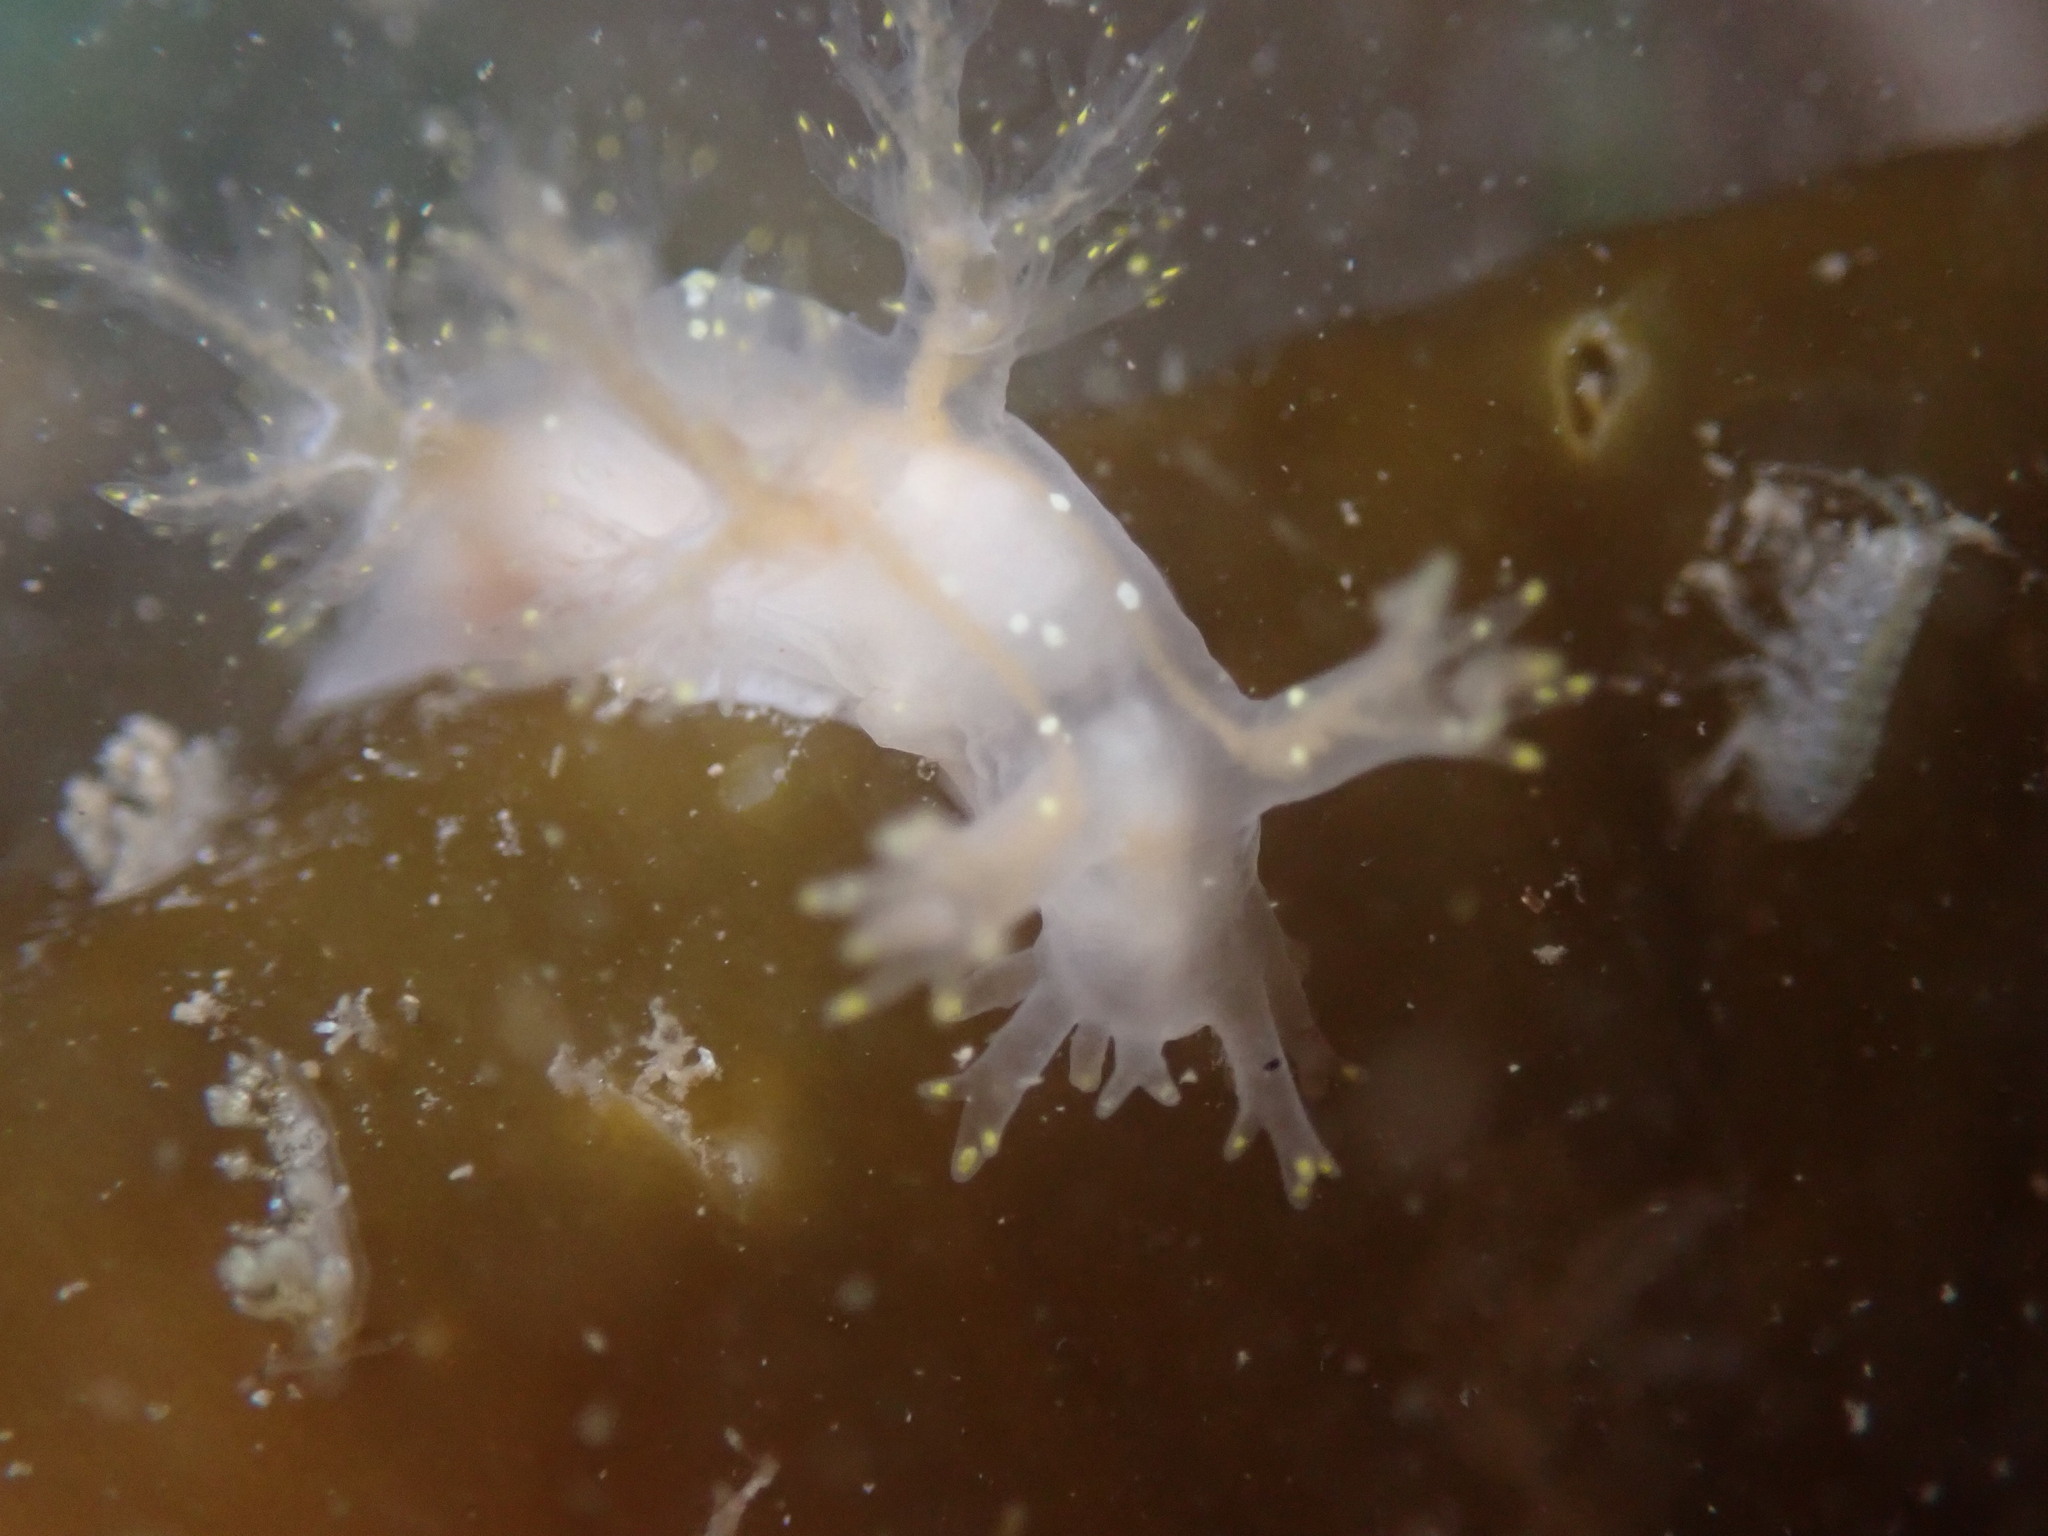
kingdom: Animalia
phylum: Mollusca
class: Gastropoda
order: Nudibranchia
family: Dendronotidae
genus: Dendronotus
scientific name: Dendronotus venustus
